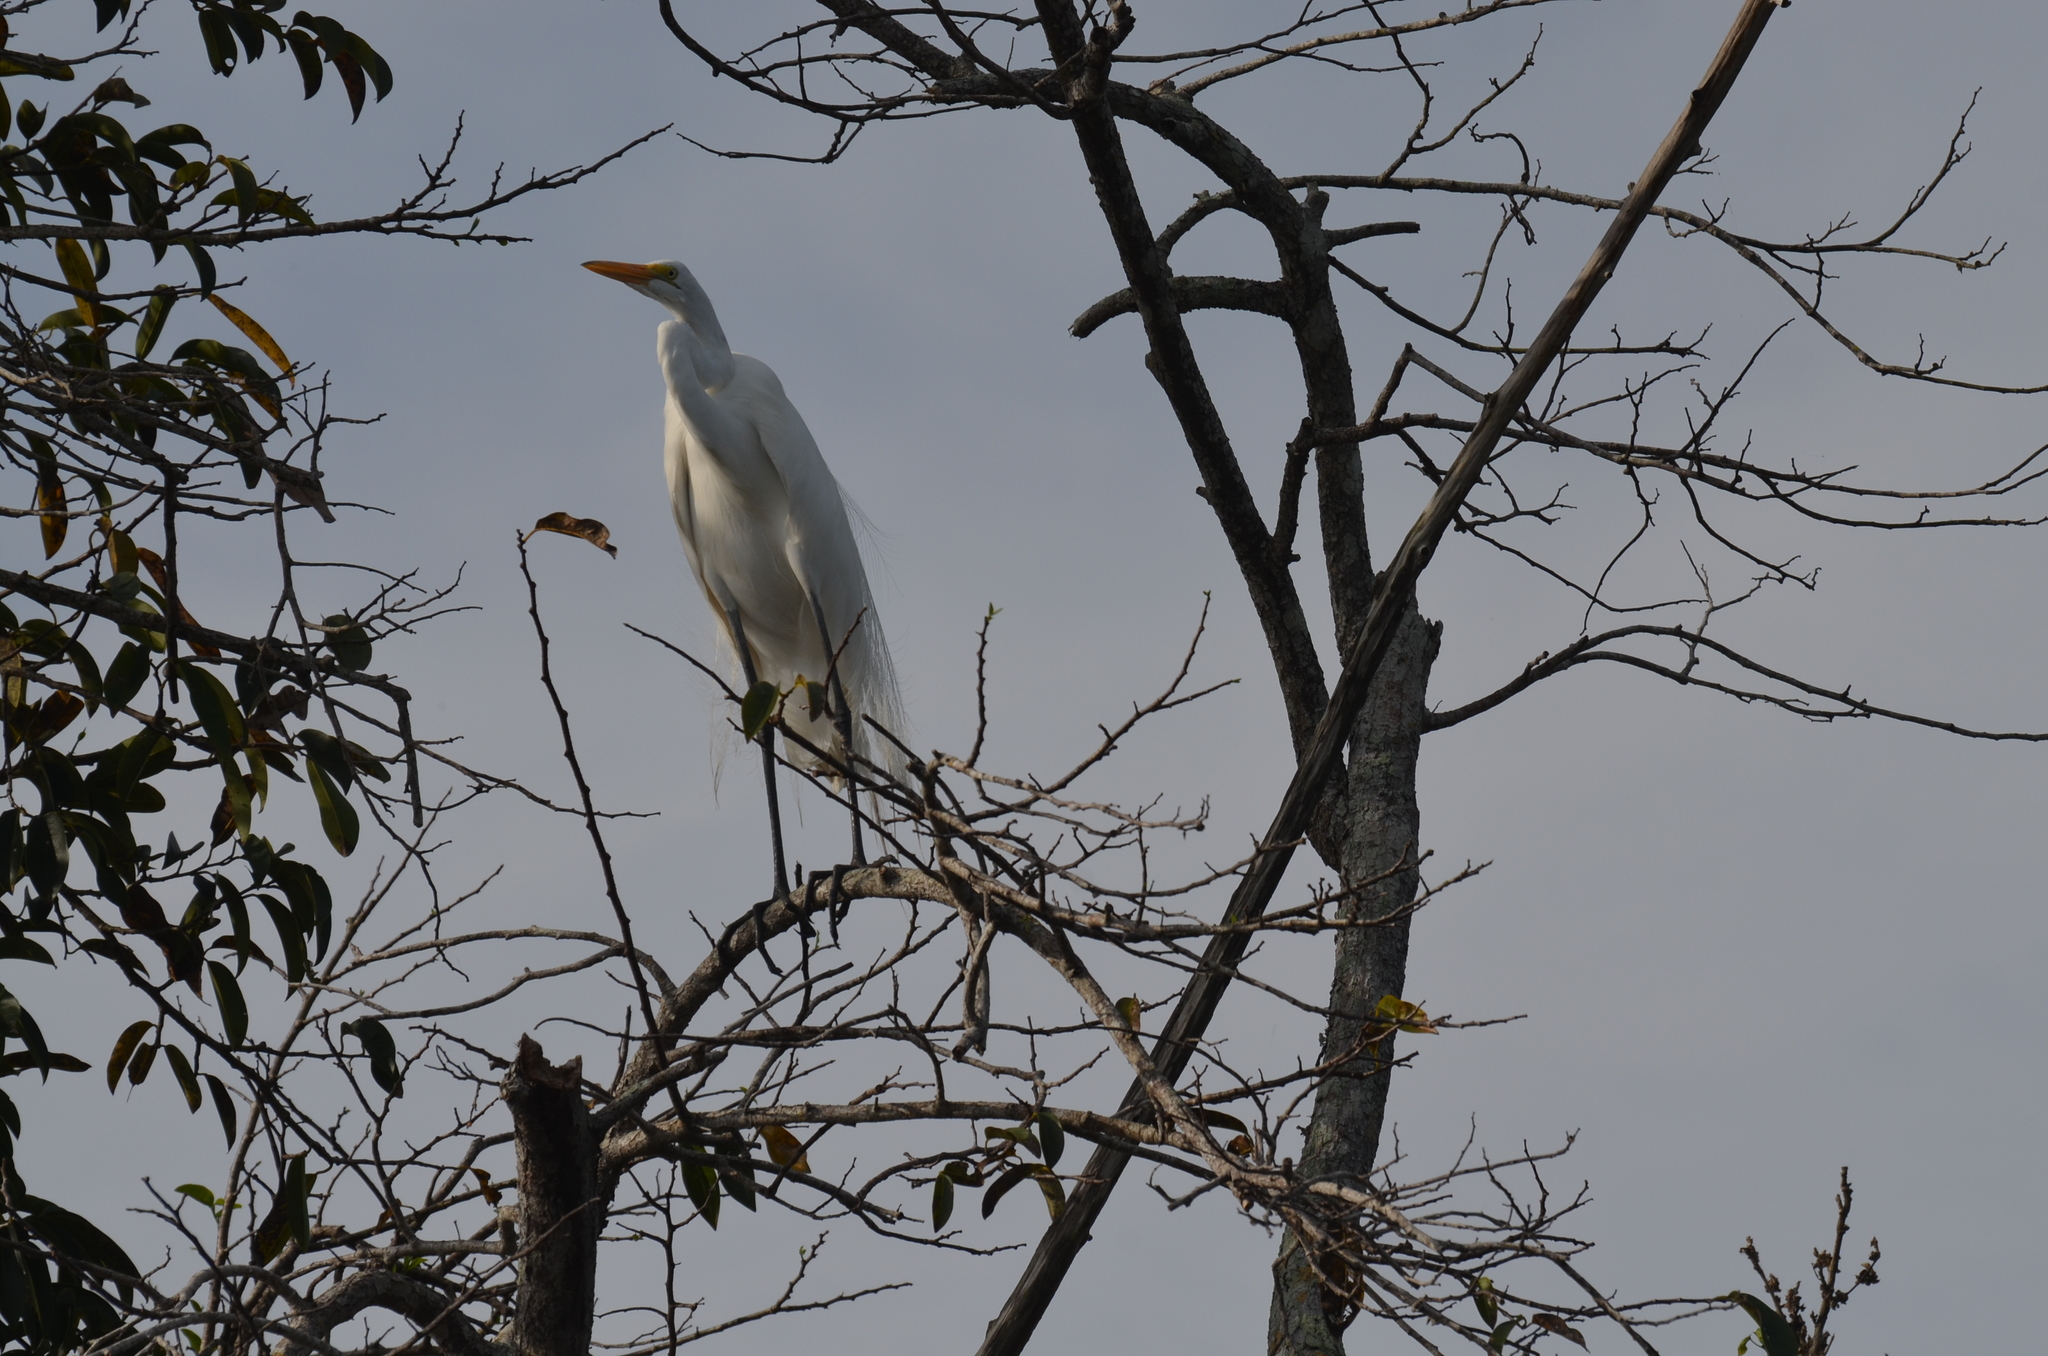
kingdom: Animalia
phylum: Chordata
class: Aves
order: Pelecaniformes
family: Ardeidae
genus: Ardea
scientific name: Ardea alba
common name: Great egret
